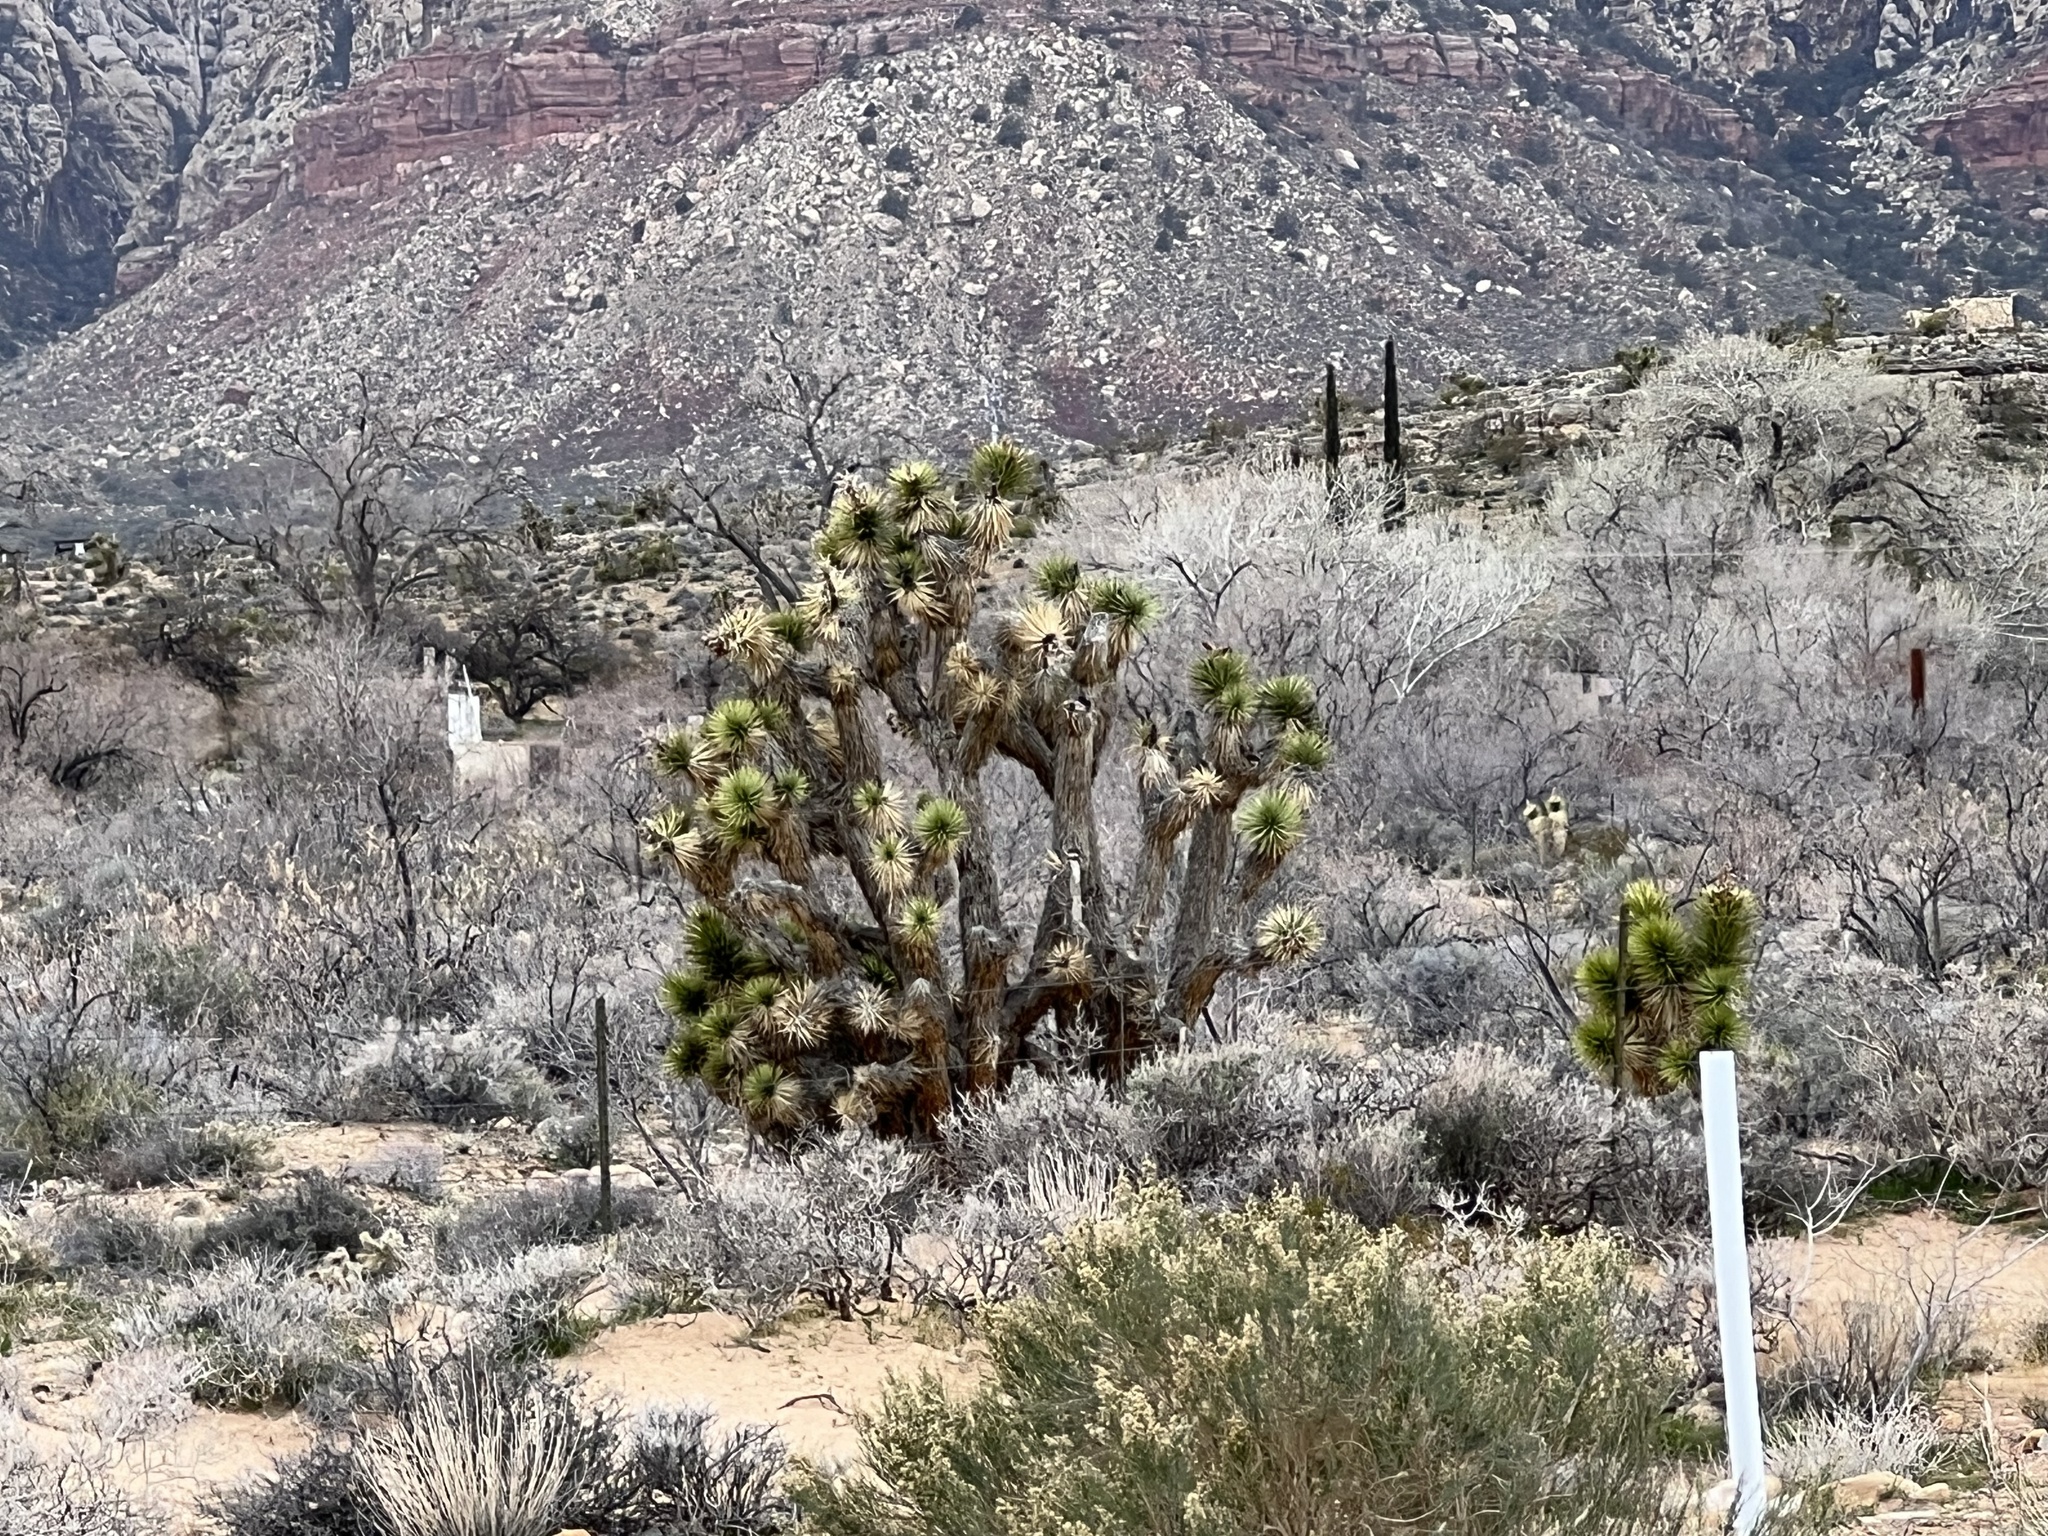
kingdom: Plantae
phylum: Tracheophyta
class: Liliopsida
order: Asparagales
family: Asparagaceae
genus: Yucca
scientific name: Yucca brevifolia
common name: Joshua tree
